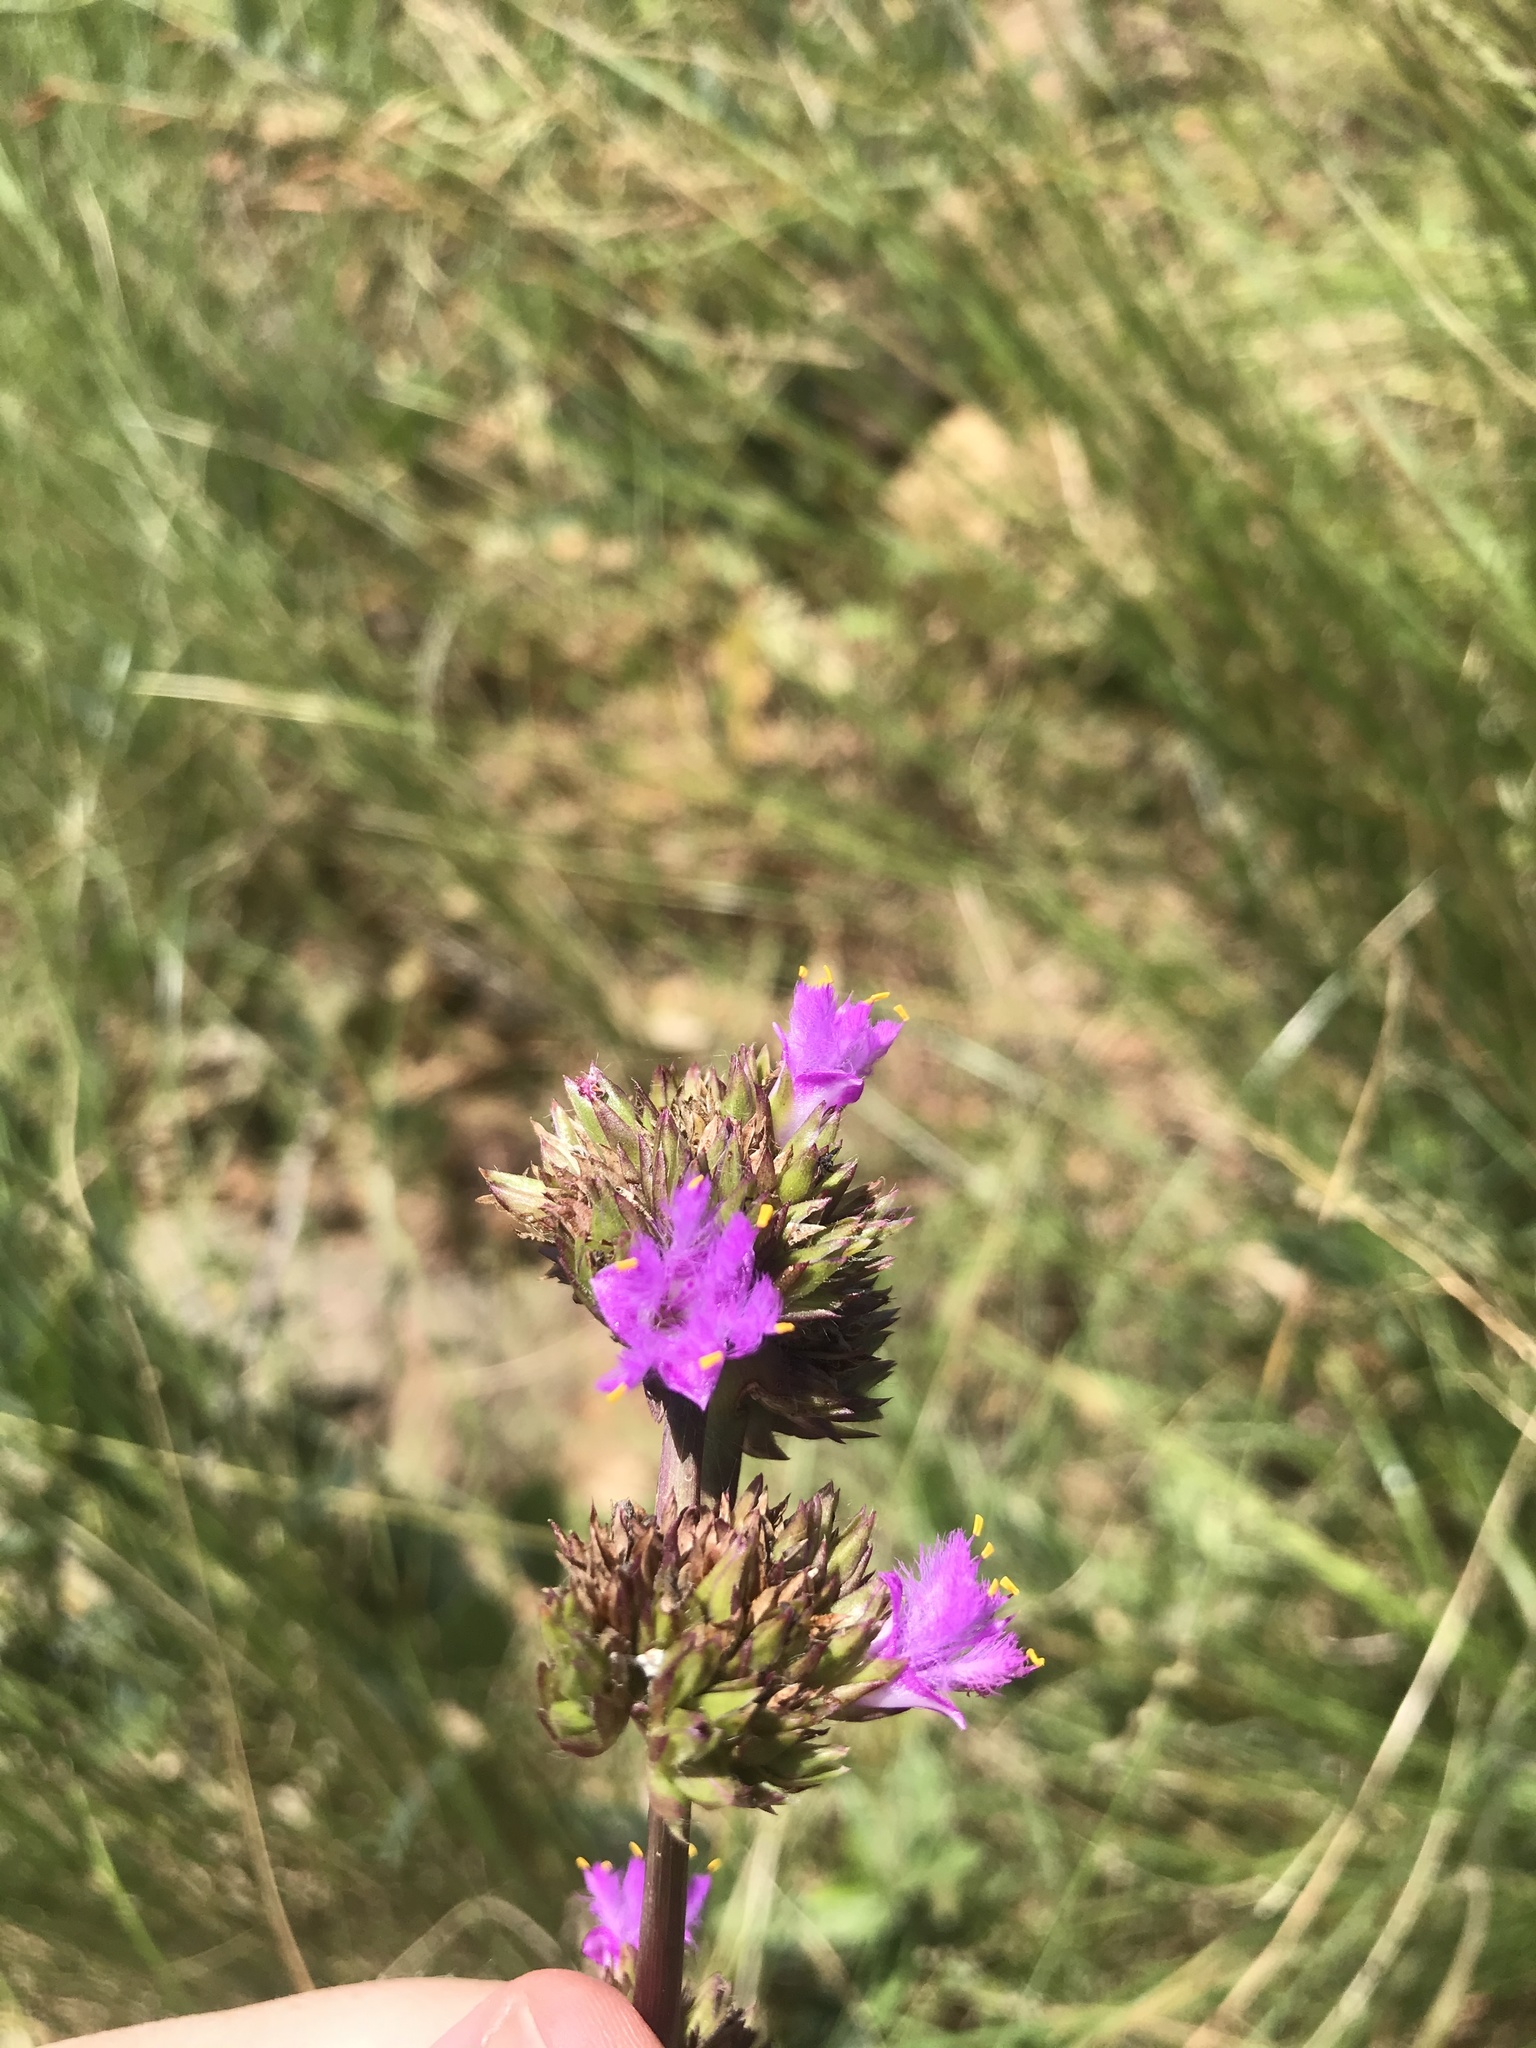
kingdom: Plantae
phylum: Tracheophyta
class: Liliopsida
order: Commelinales
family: Commelinaceae
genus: Cyanotis
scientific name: Cyanotis speciosa
